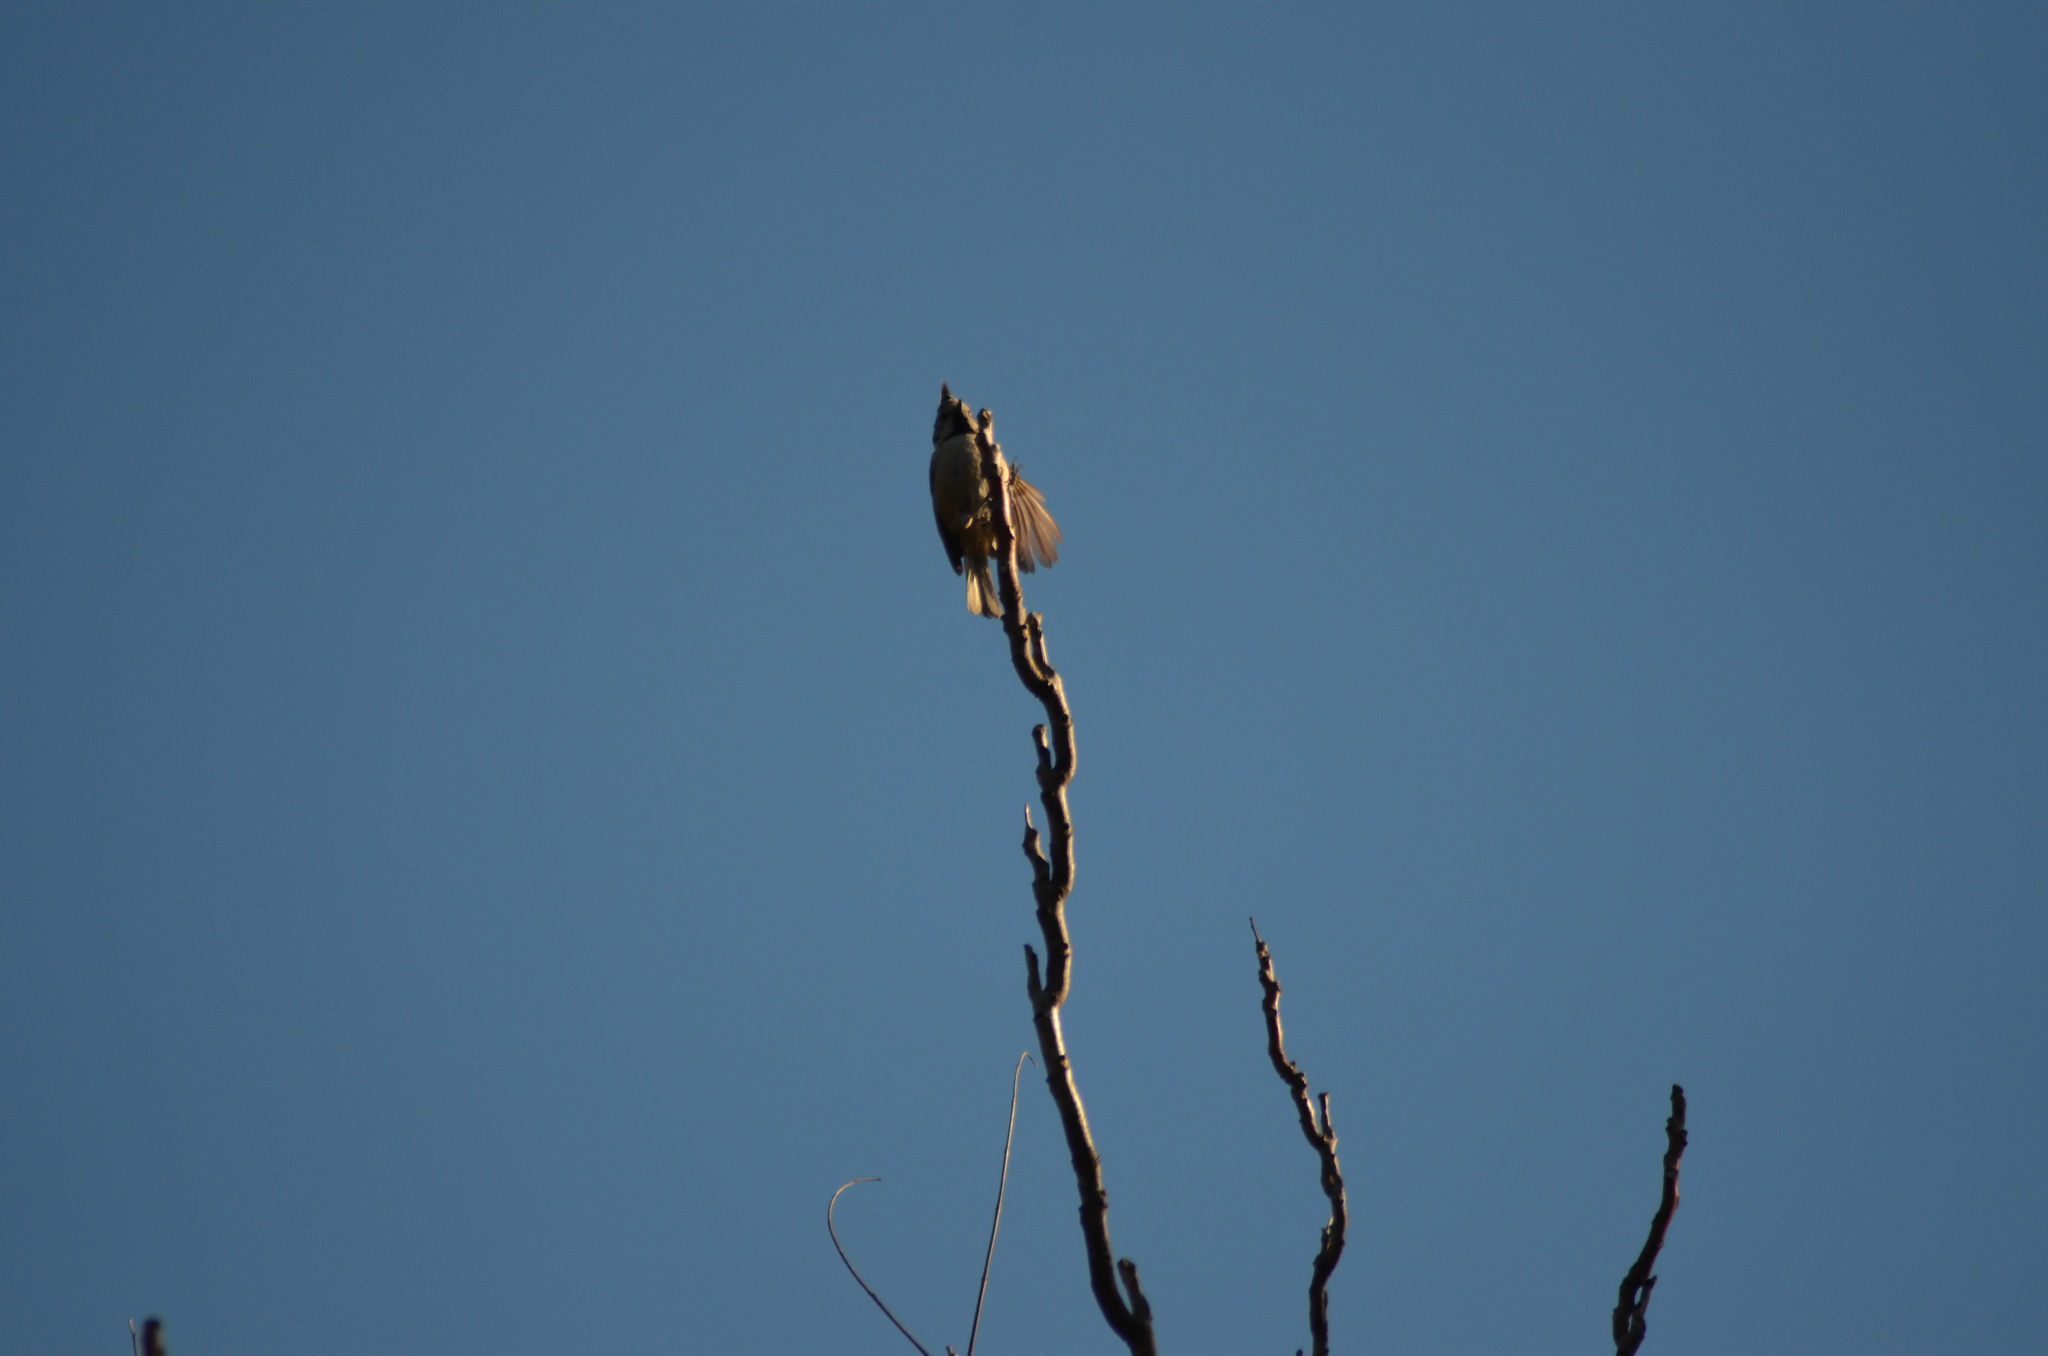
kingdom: Animalia
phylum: Chordata
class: Aves
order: Passeriformes
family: Paridae
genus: Lophophanes
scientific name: Lophophanes cristatus
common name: European crested tit
